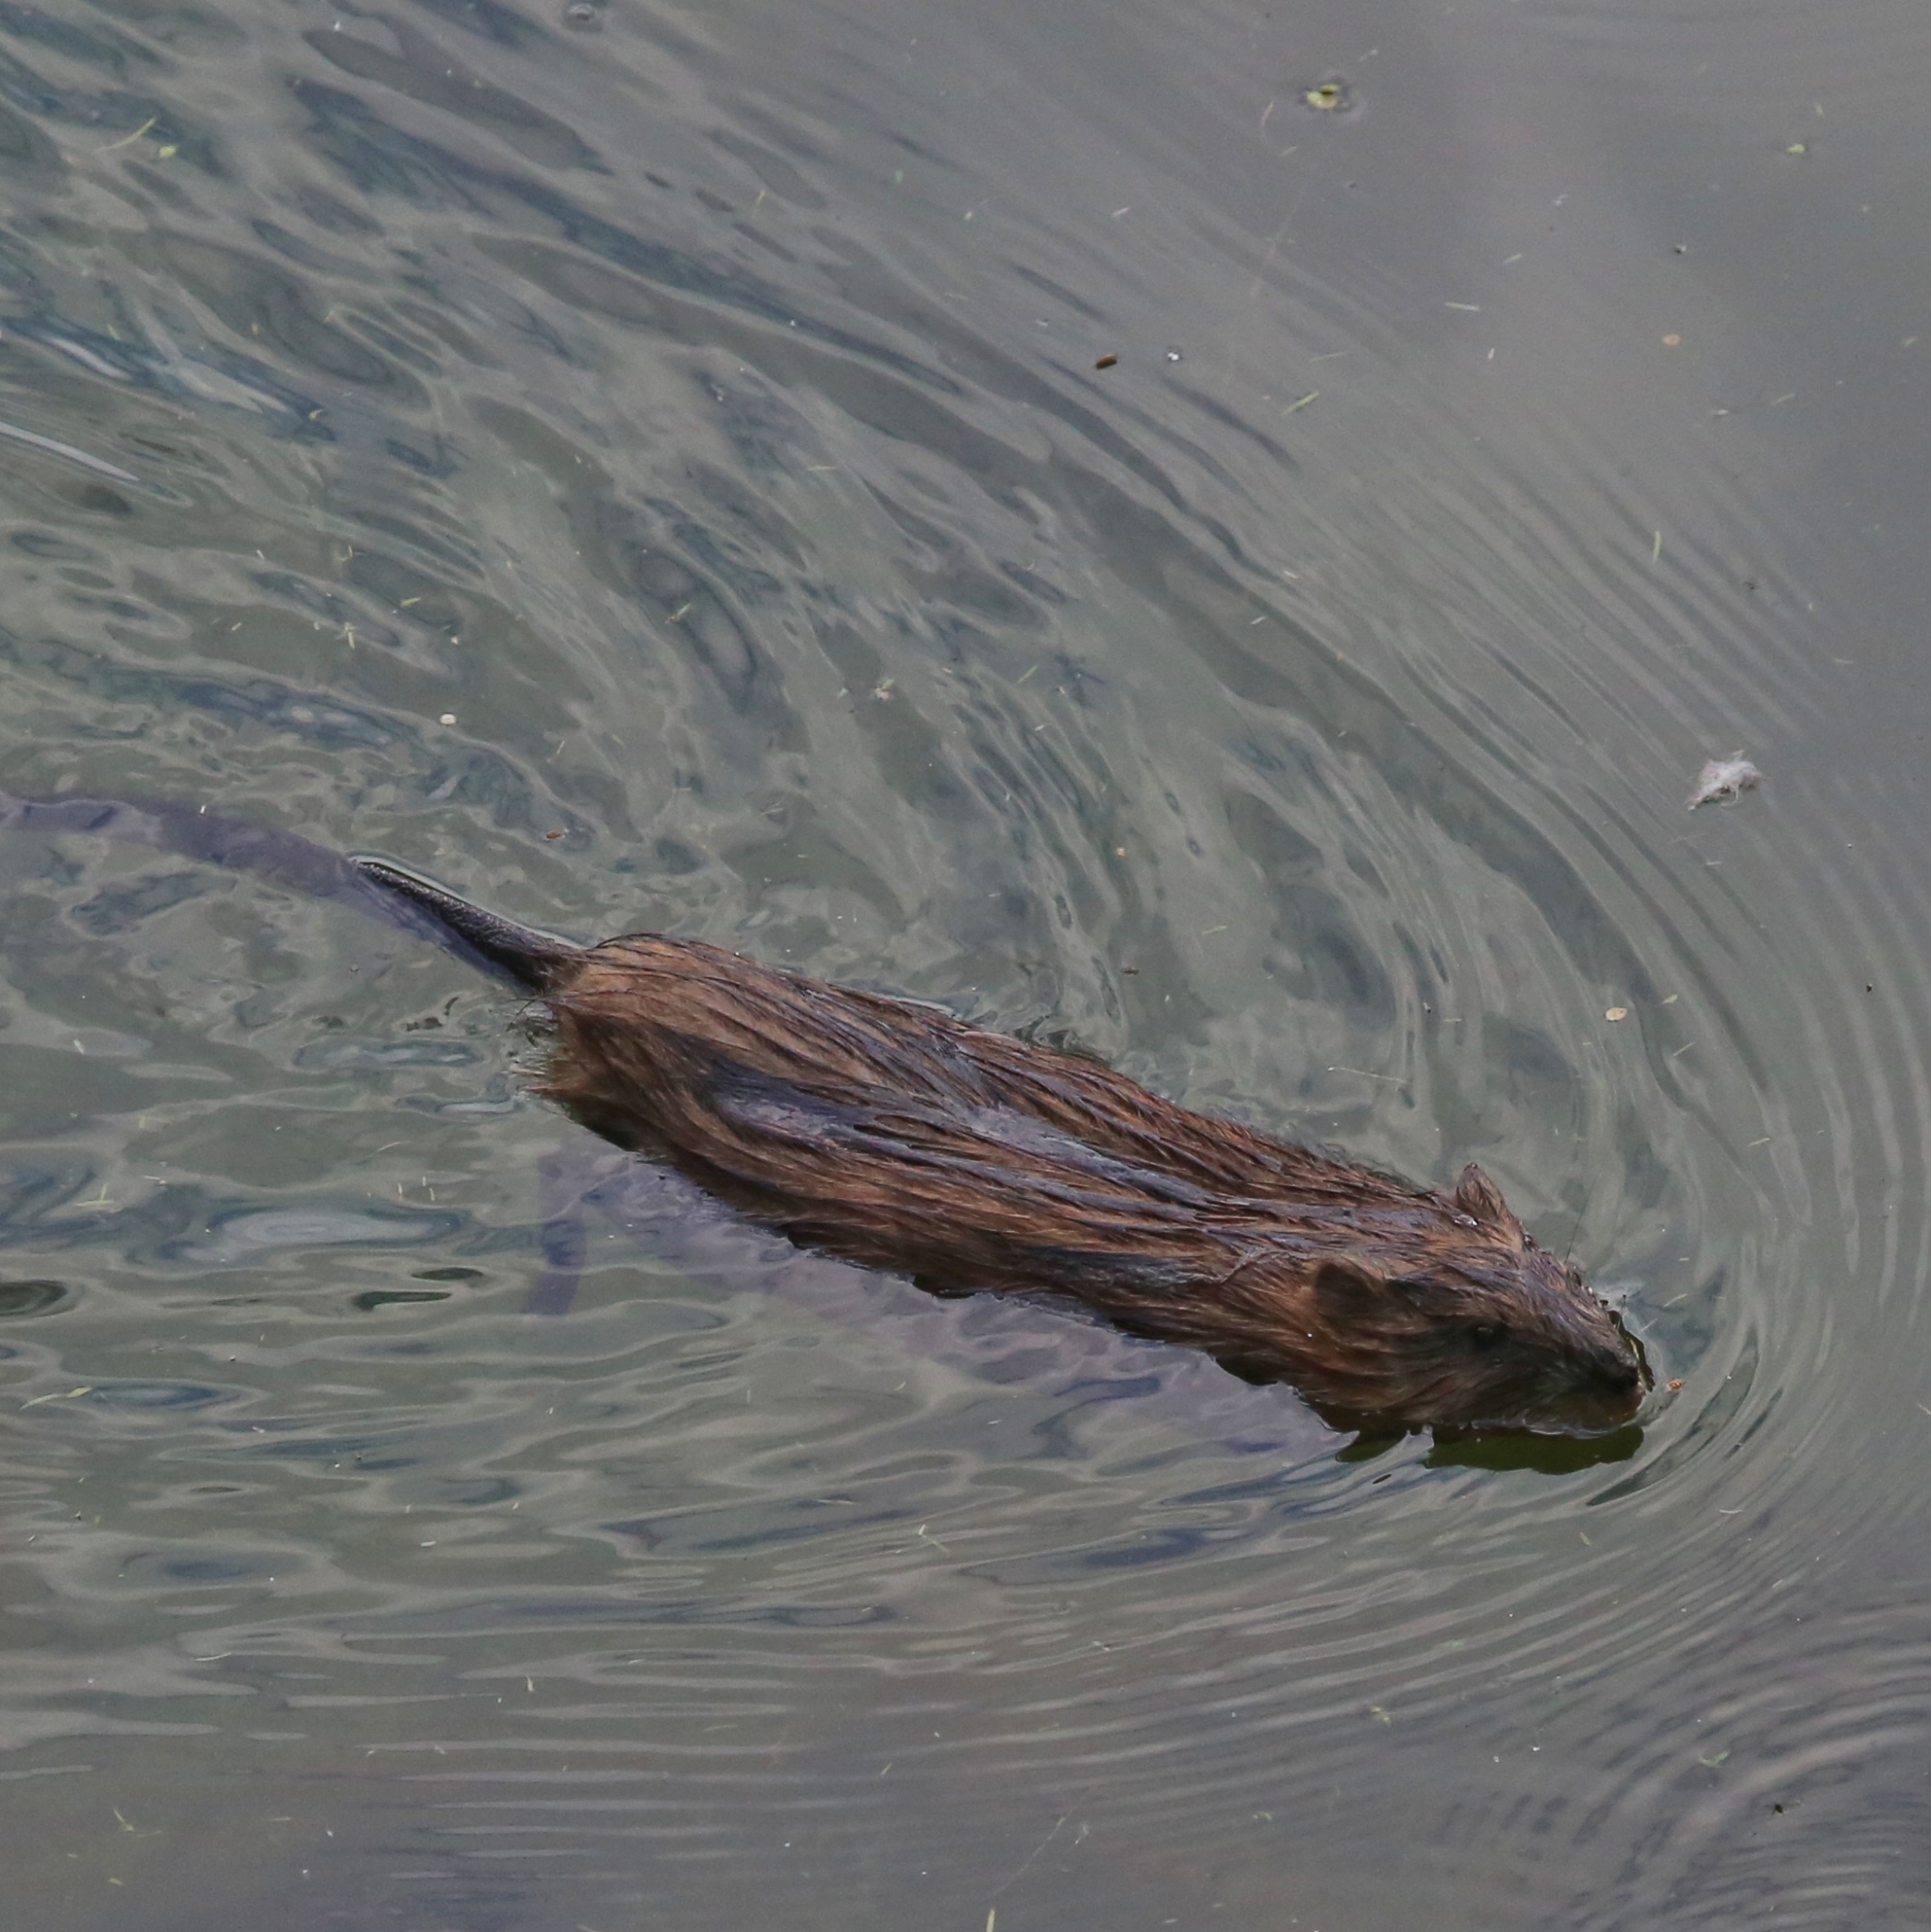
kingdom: Animalia
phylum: Chordata
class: Mammalia
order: Rodentia
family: Cricetidae
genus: Ondatra
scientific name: Ondatra zibethicus
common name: Muskrat
